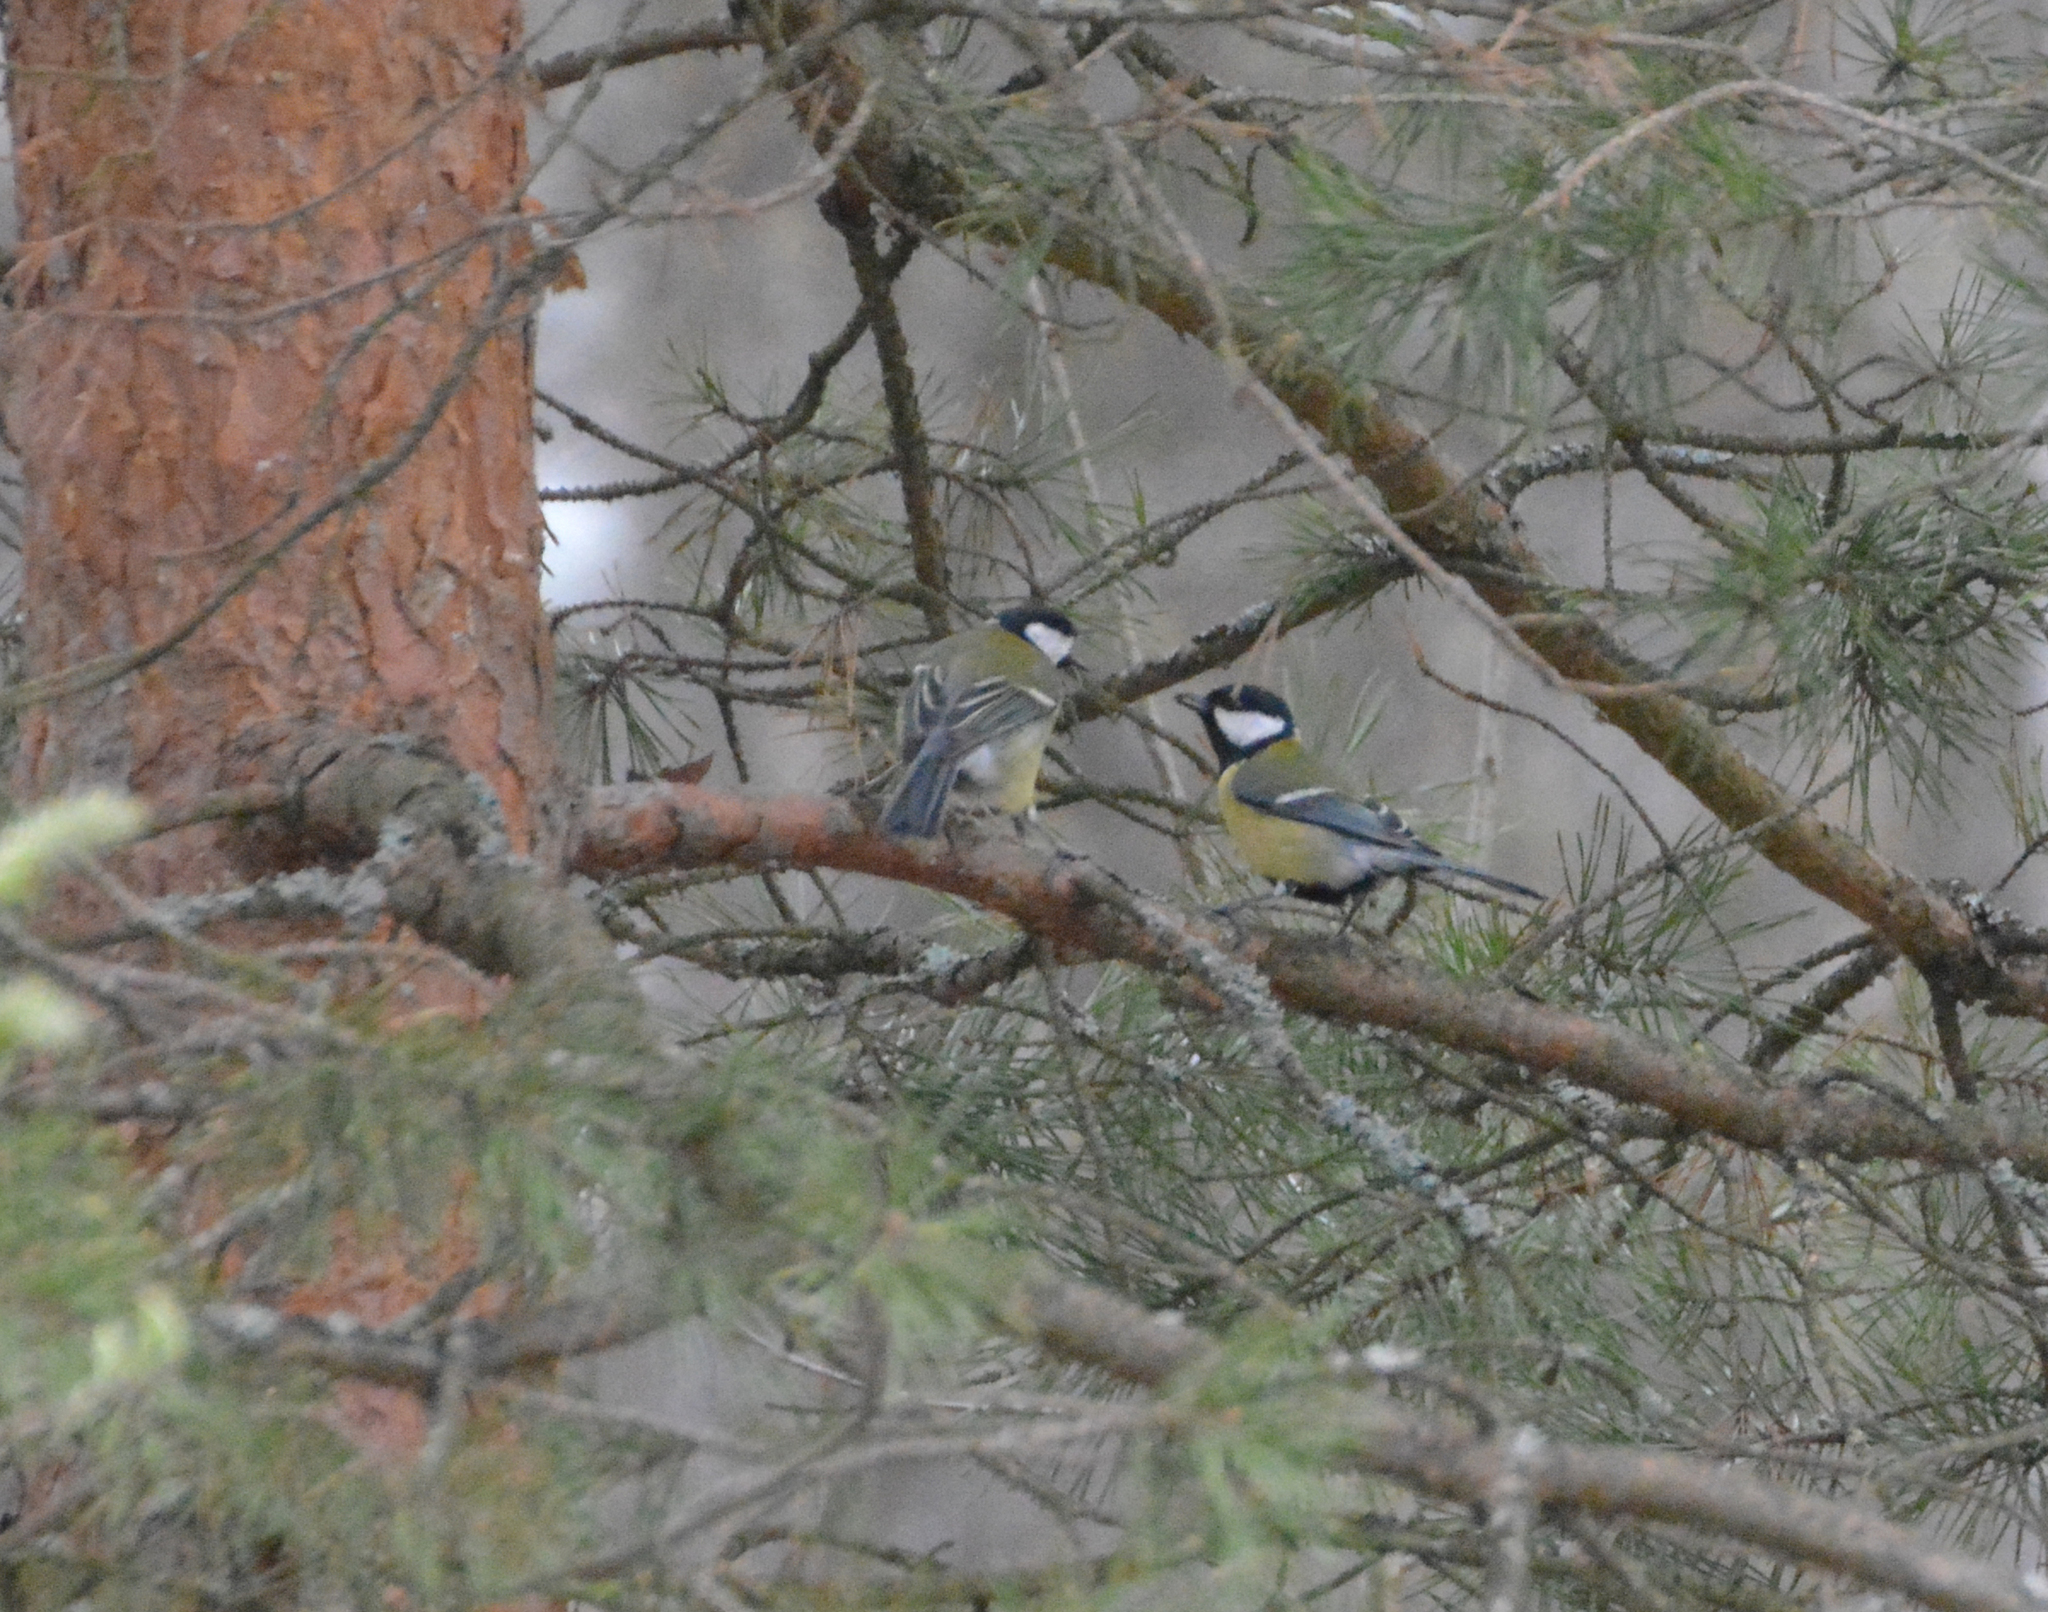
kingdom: Animalia
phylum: Chordata
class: Aves
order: Passeriformes
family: Paridae
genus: Parus
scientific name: Parus major
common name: Great tit
